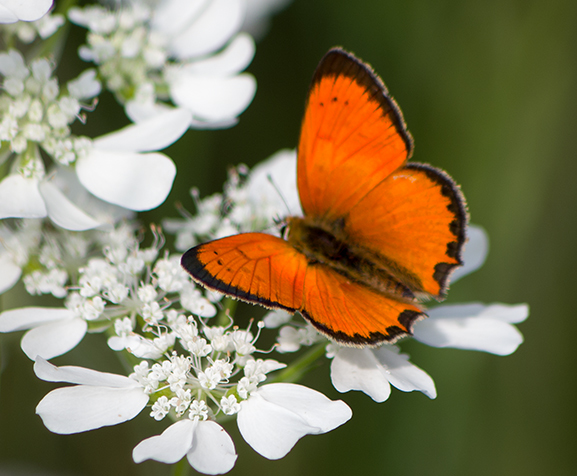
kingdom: Animalia
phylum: Arthropoda
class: Insecta
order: Lepidoptera
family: Lycaenidae
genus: Polyommatus
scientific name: Polyommatus ottomanus
